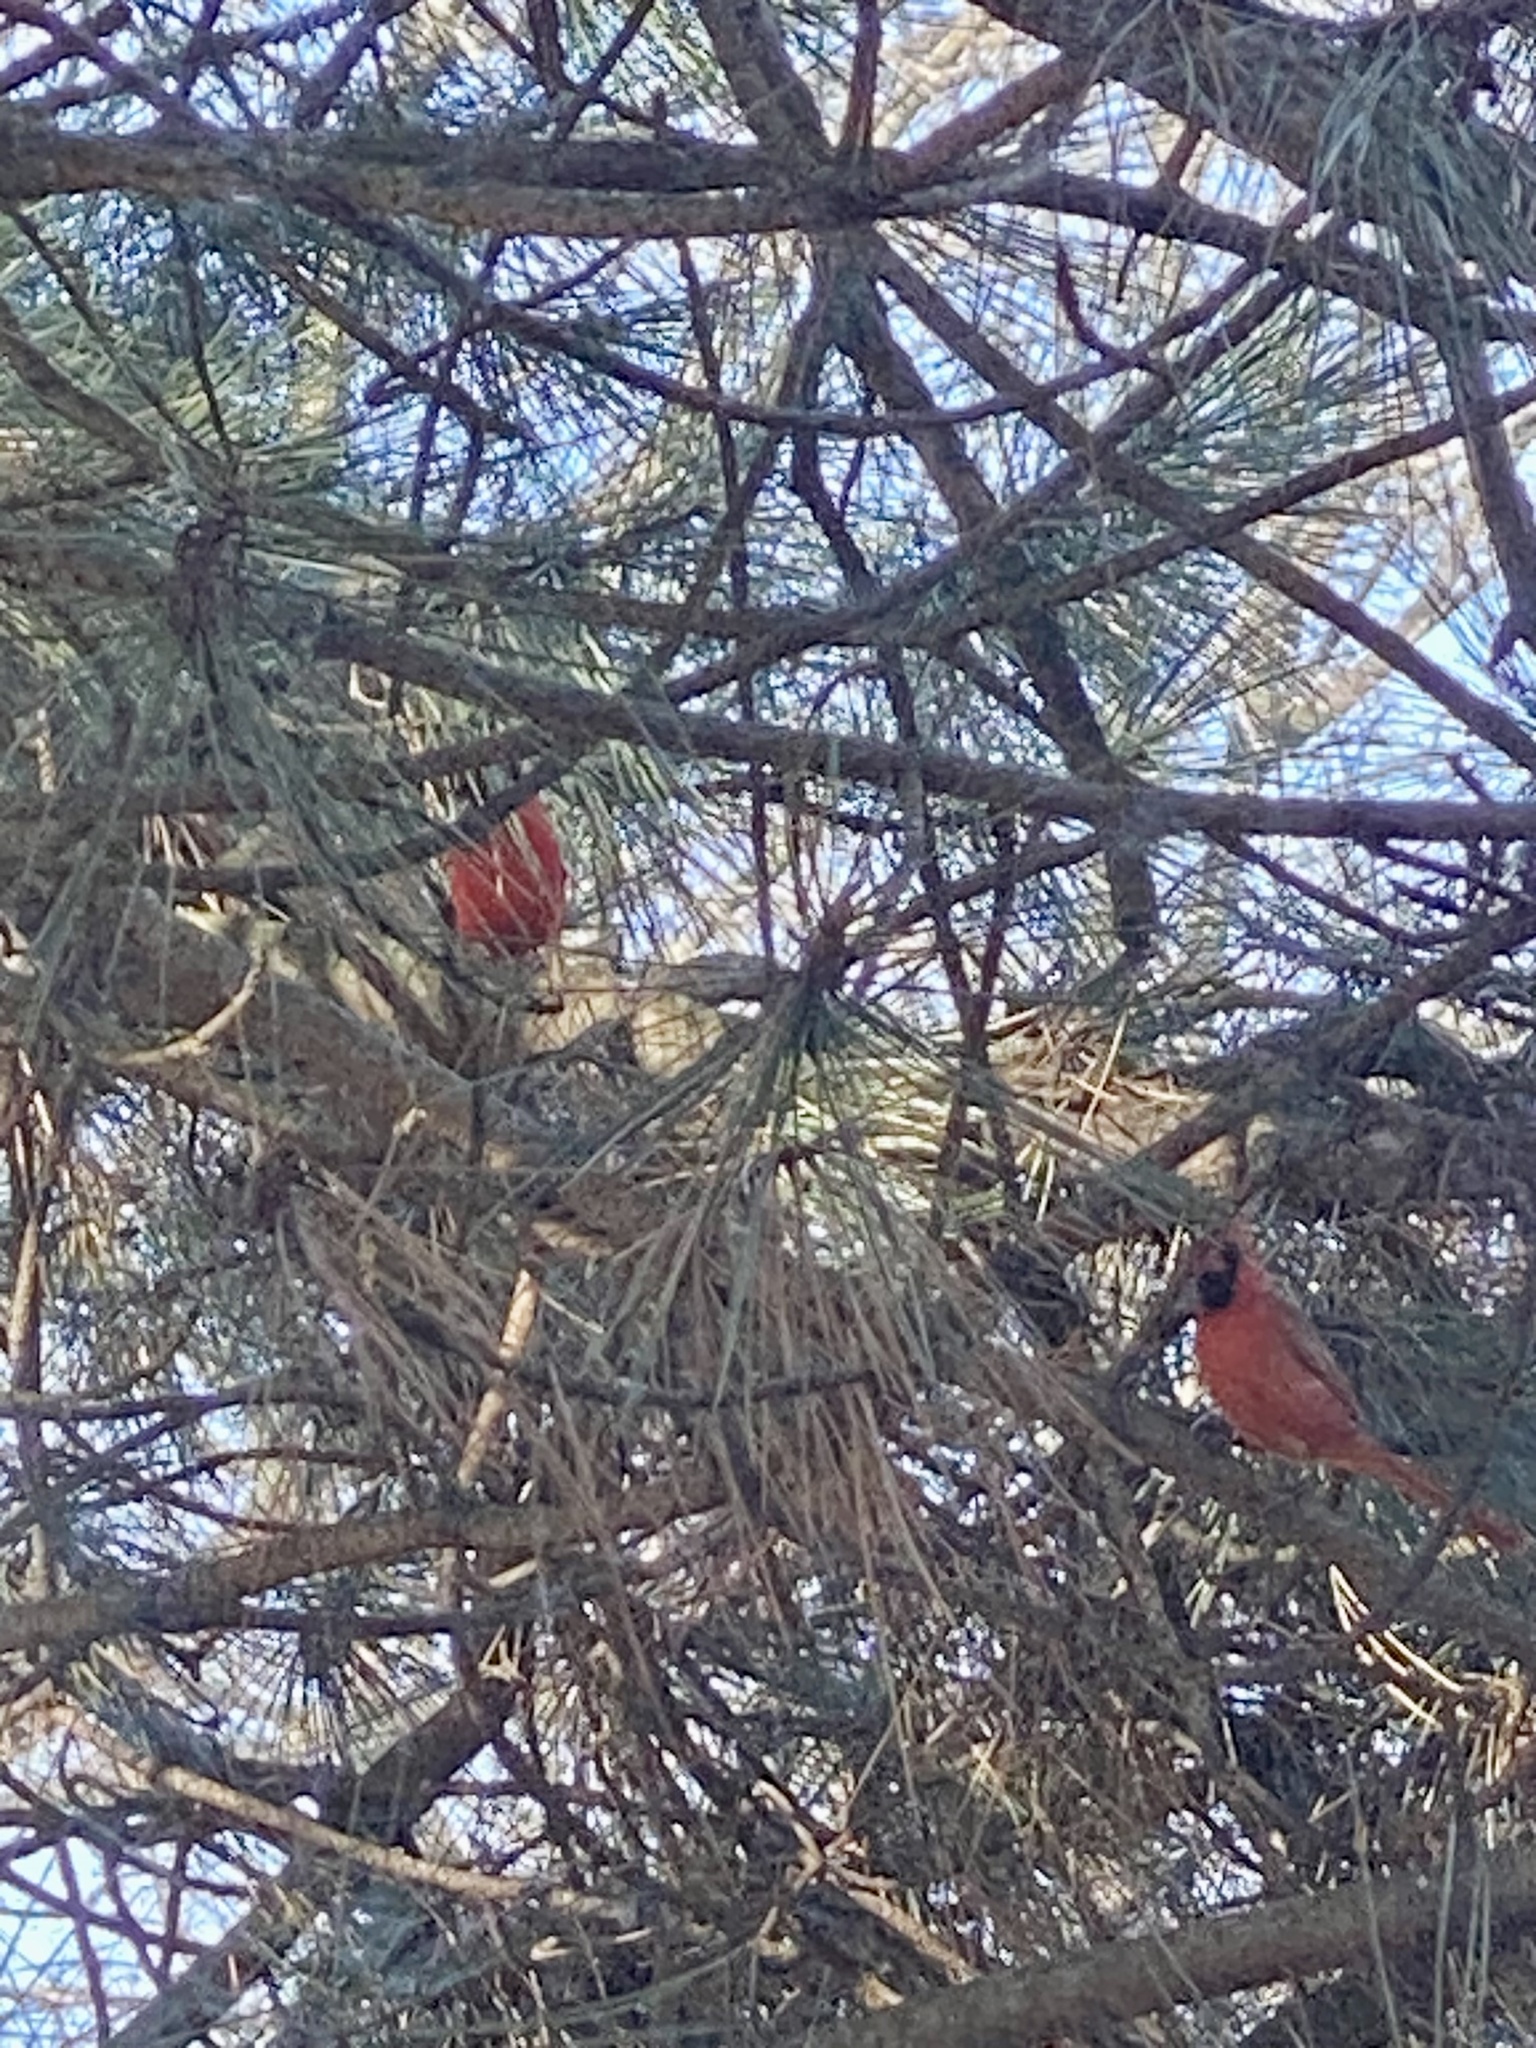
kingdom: Animalia
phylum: Chordata
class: Aves
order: Passeriformes
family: Cardinalidae
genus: Cardinalis
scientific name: Cardinalis cardinalis
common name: Northern cardinal
